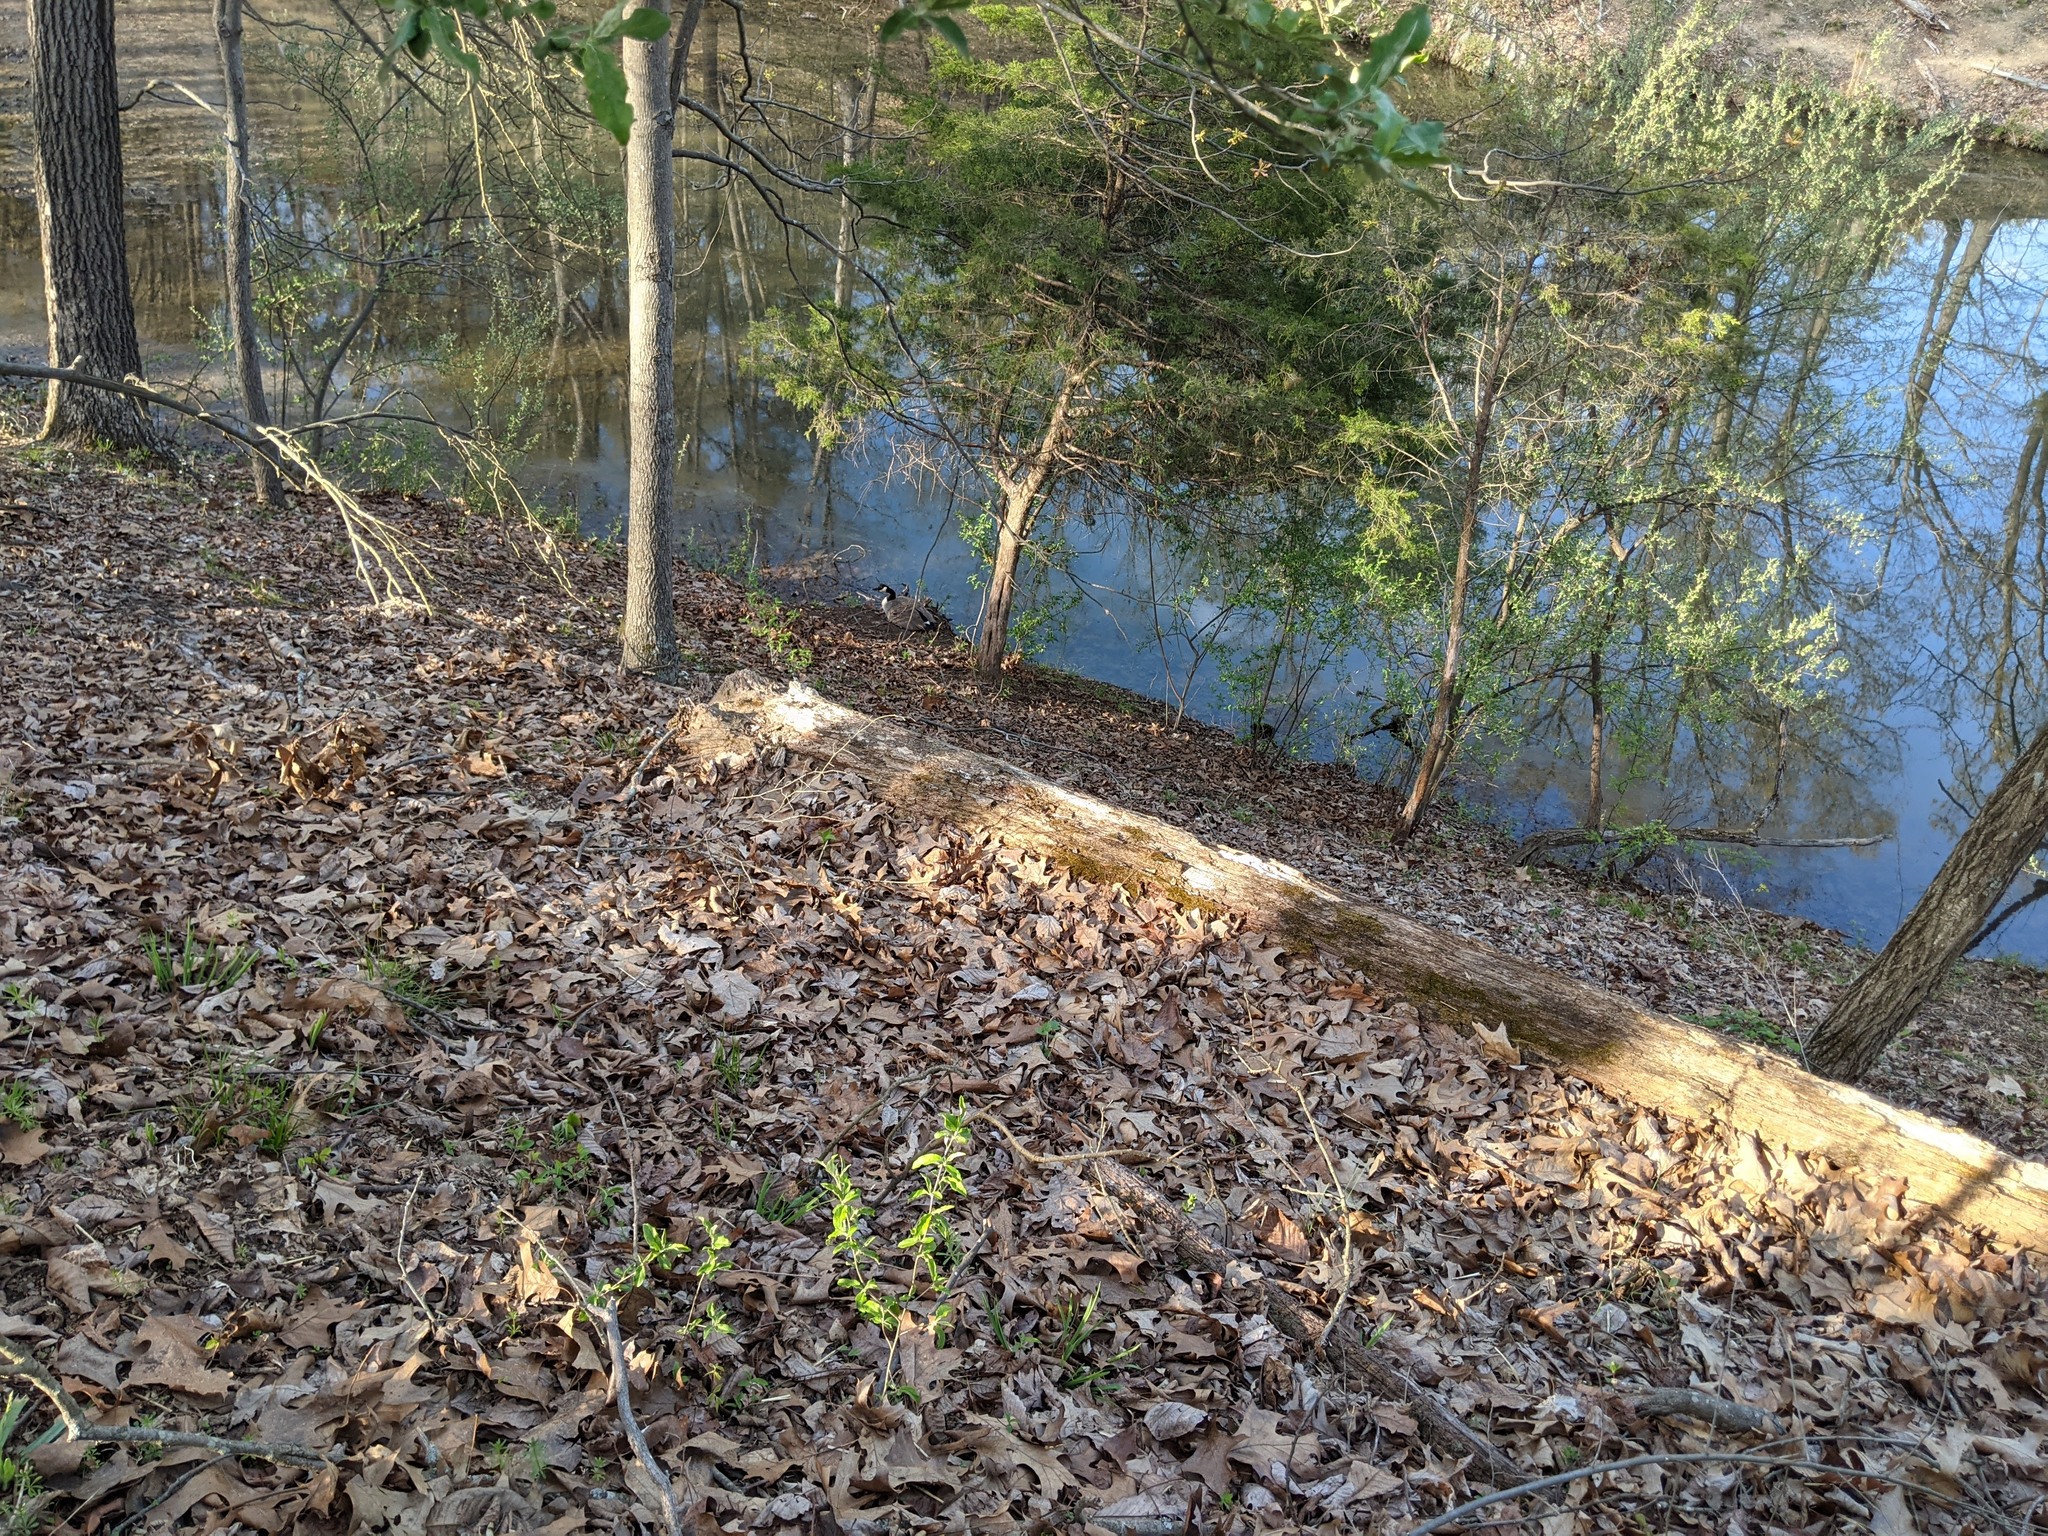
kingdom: Animalia
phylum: Chordata
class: Aves
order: Anseriformes
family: Anatidae
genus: Branta
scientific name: Branta canadensis
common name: Canada goose
